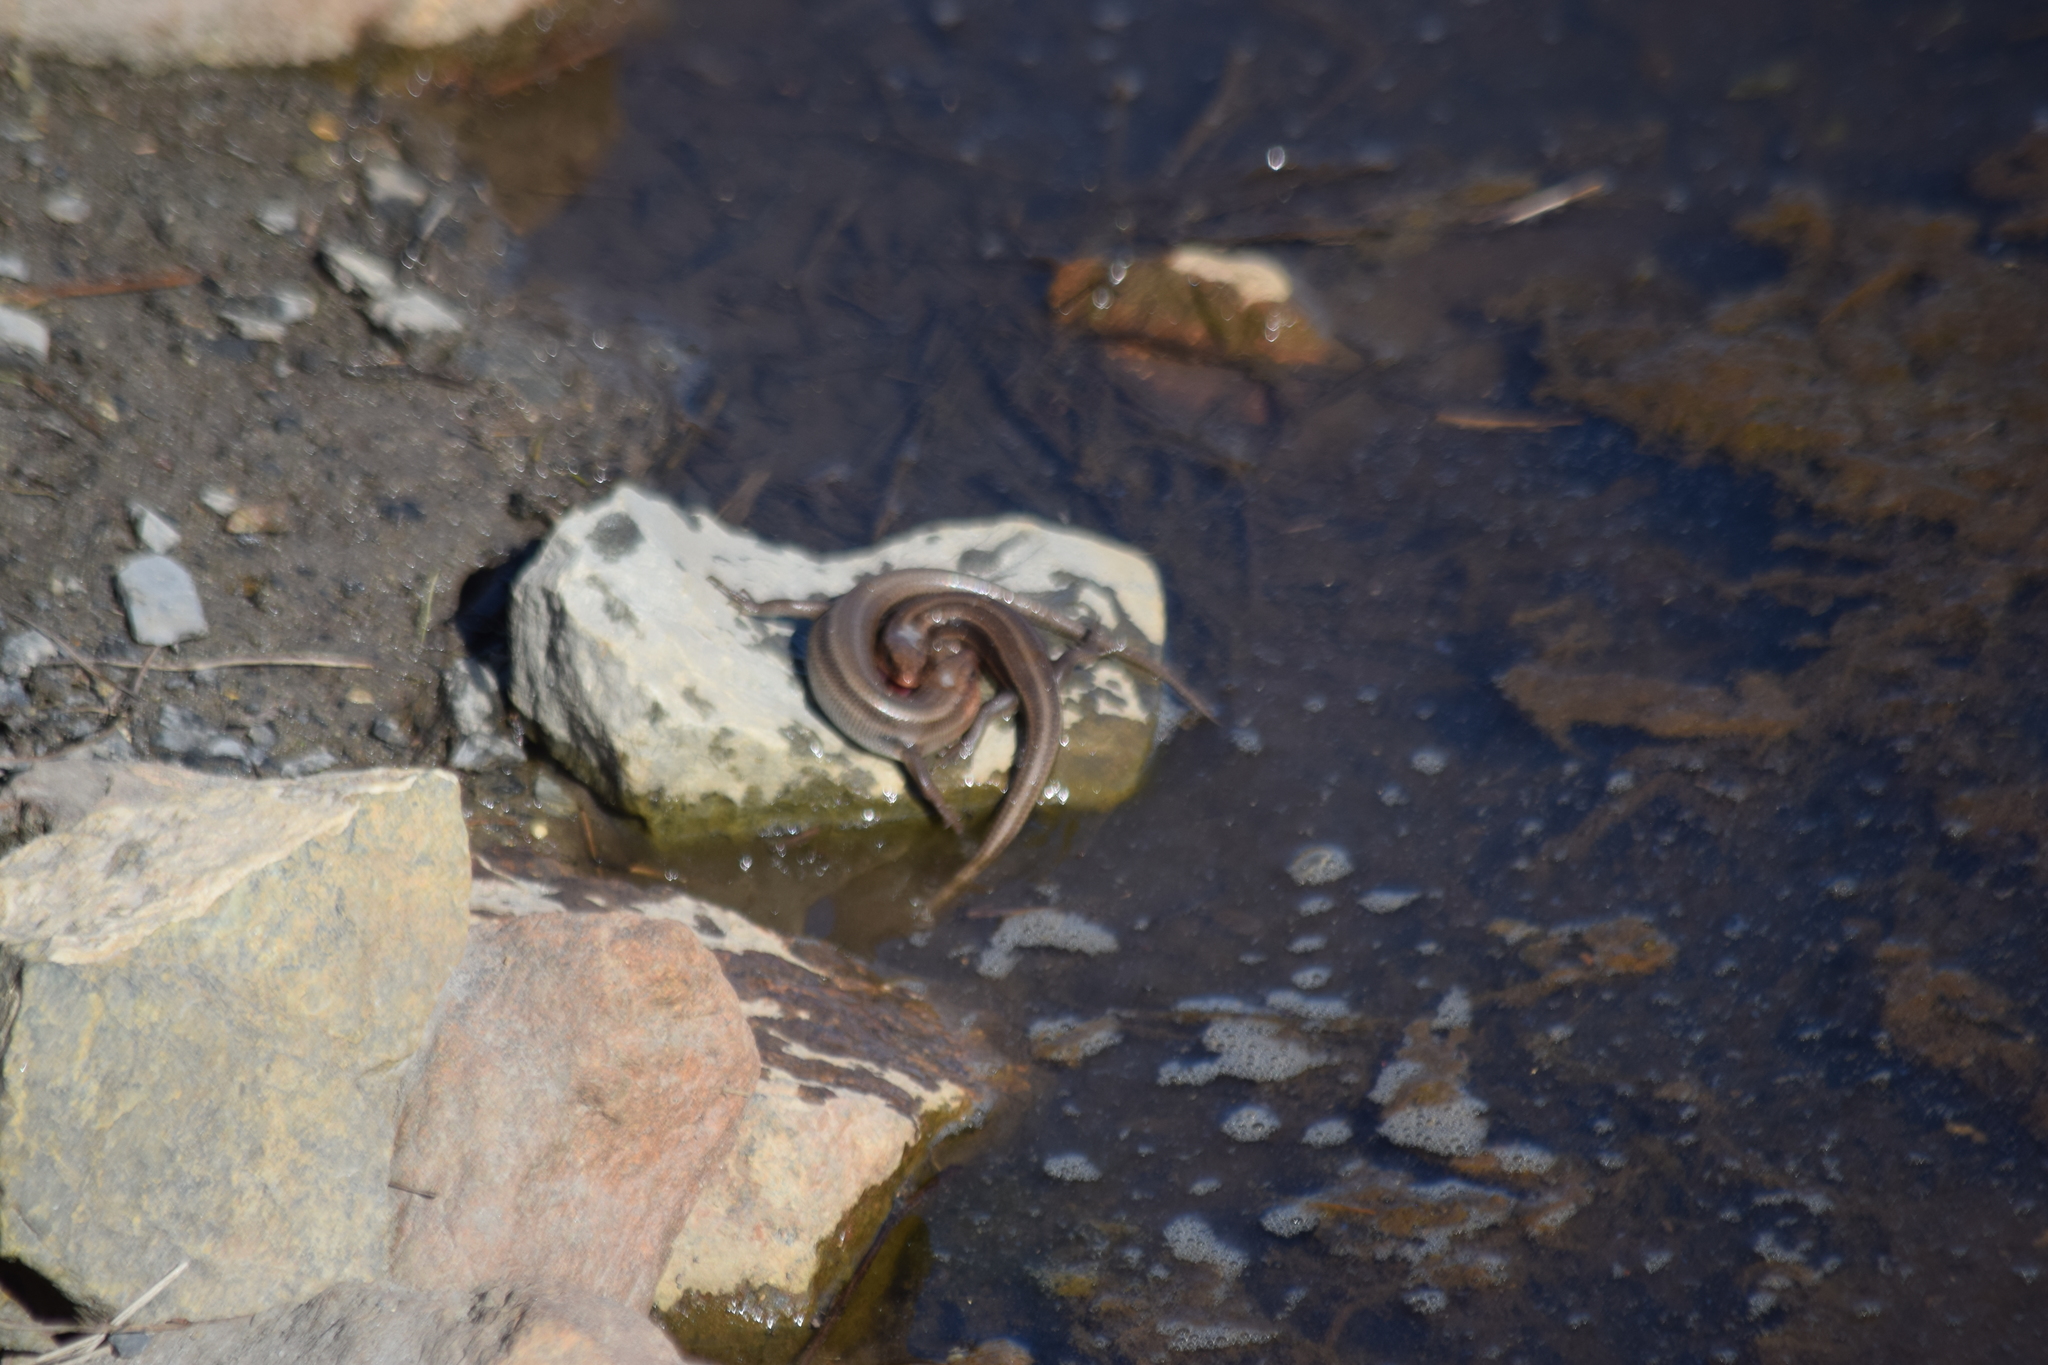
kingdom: Animalia
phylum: Chordata
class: Squamata
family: Scincidae
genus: Plestiodon
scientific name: Plestiodon fasciatus
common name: Five-lined skink
